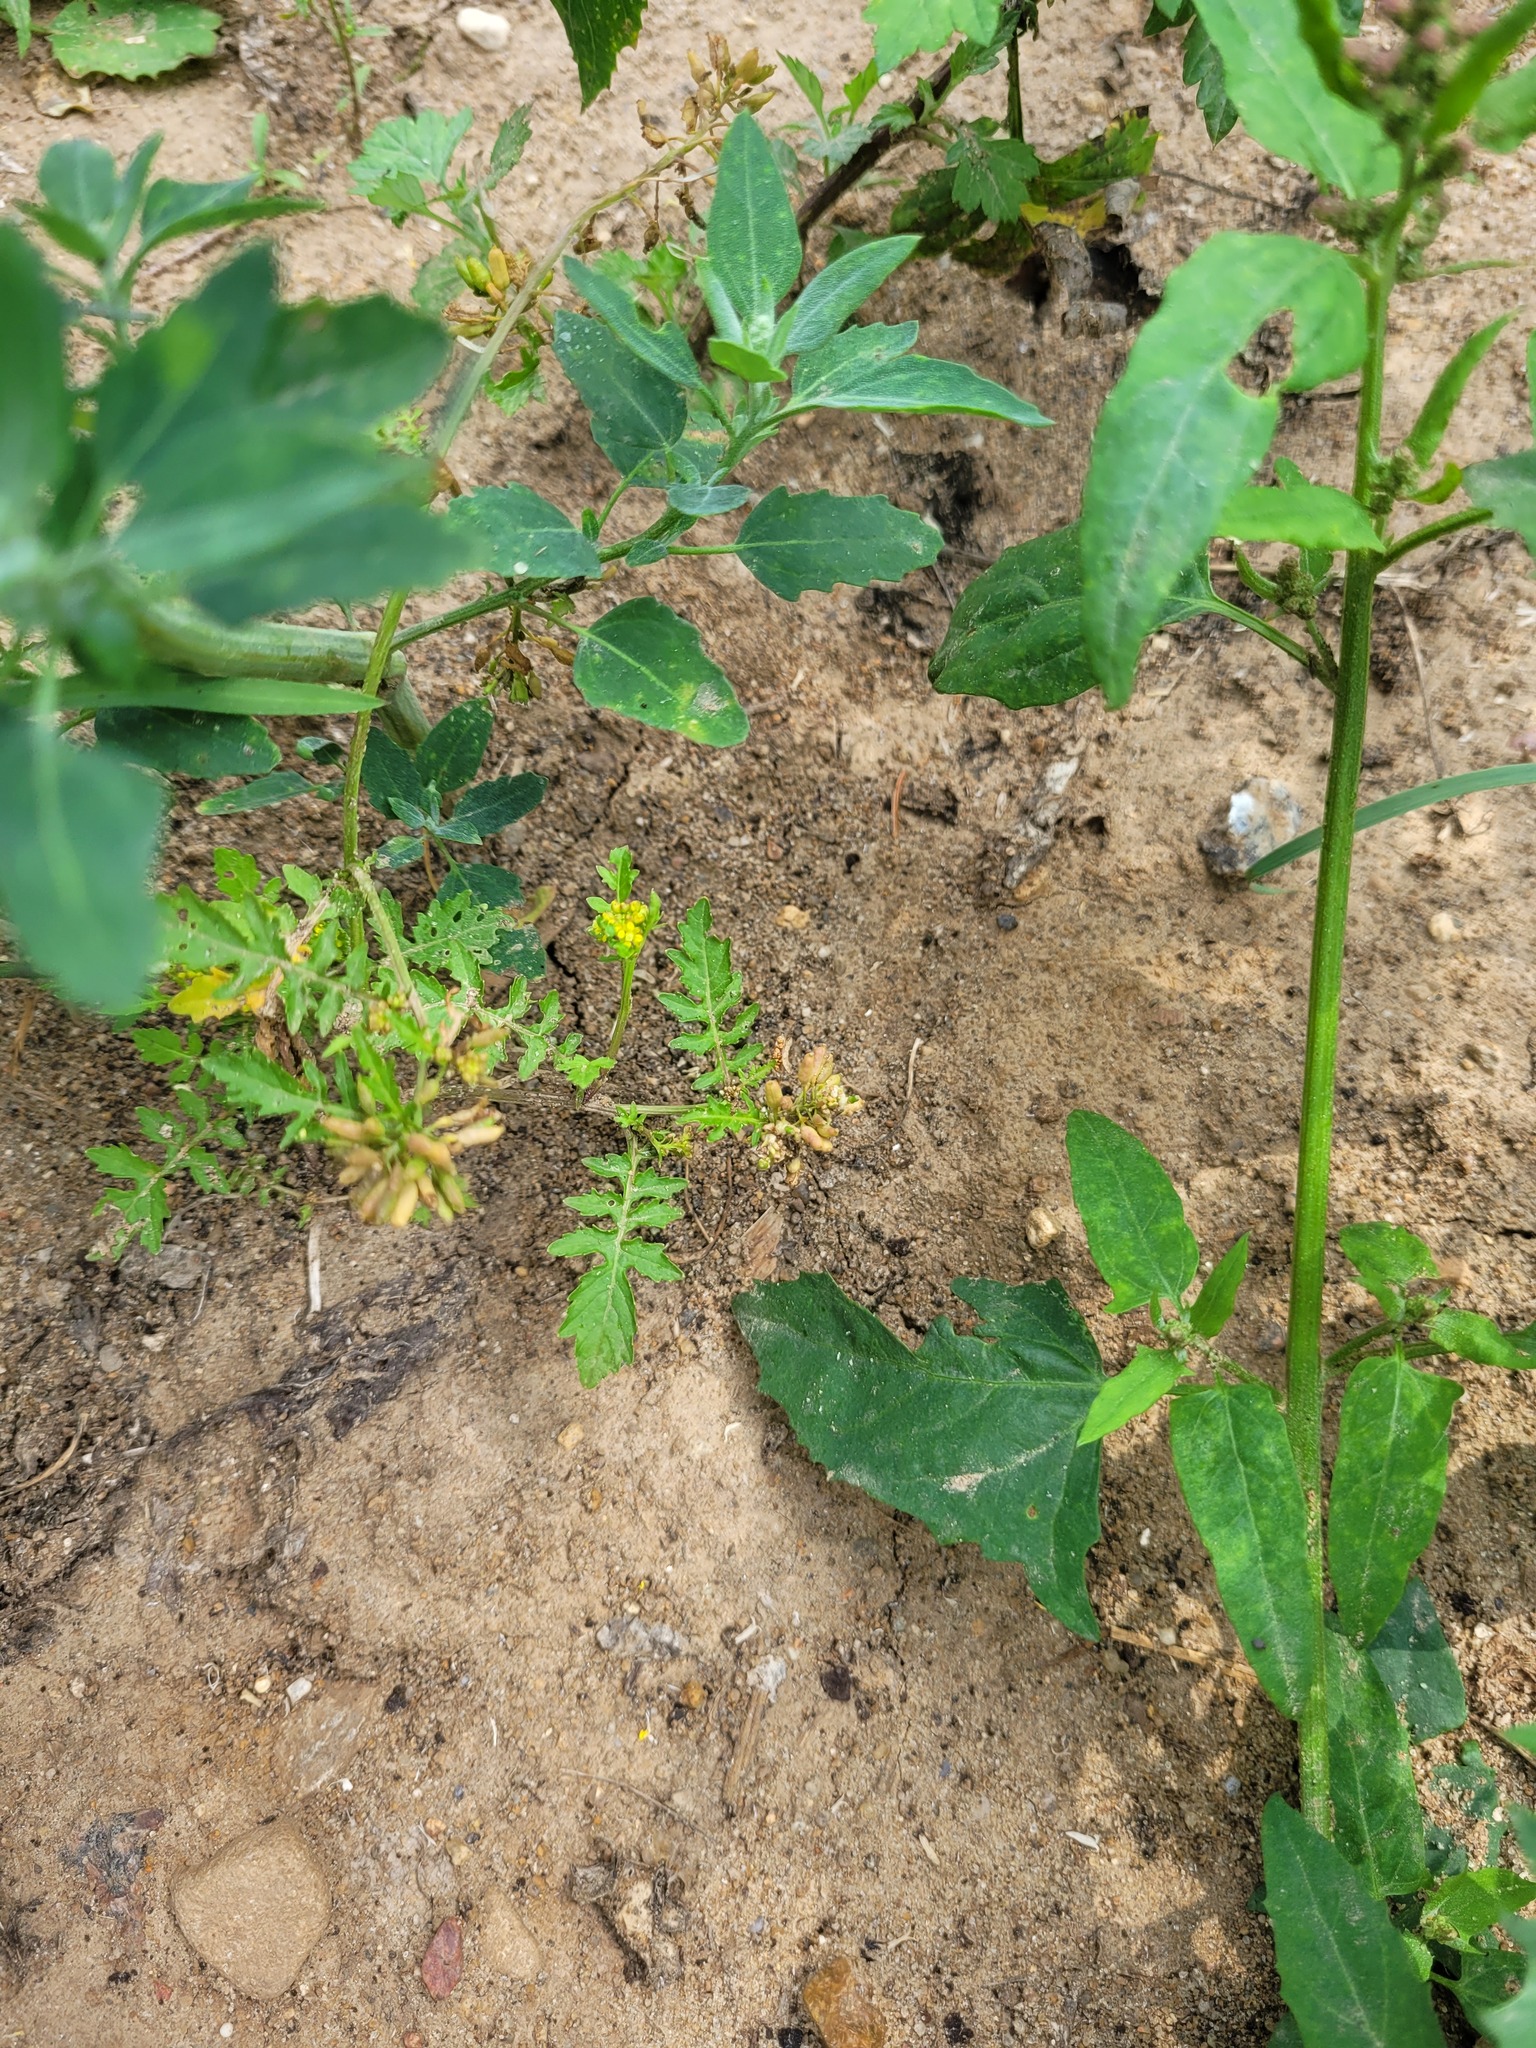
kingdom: Plantae
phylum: Tracheophyta
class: Magnoliopsida
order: Brassicales
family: Brassicaceae
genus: Rorippa
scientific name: Rorippa palustris
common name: Marsh yellow-cress
